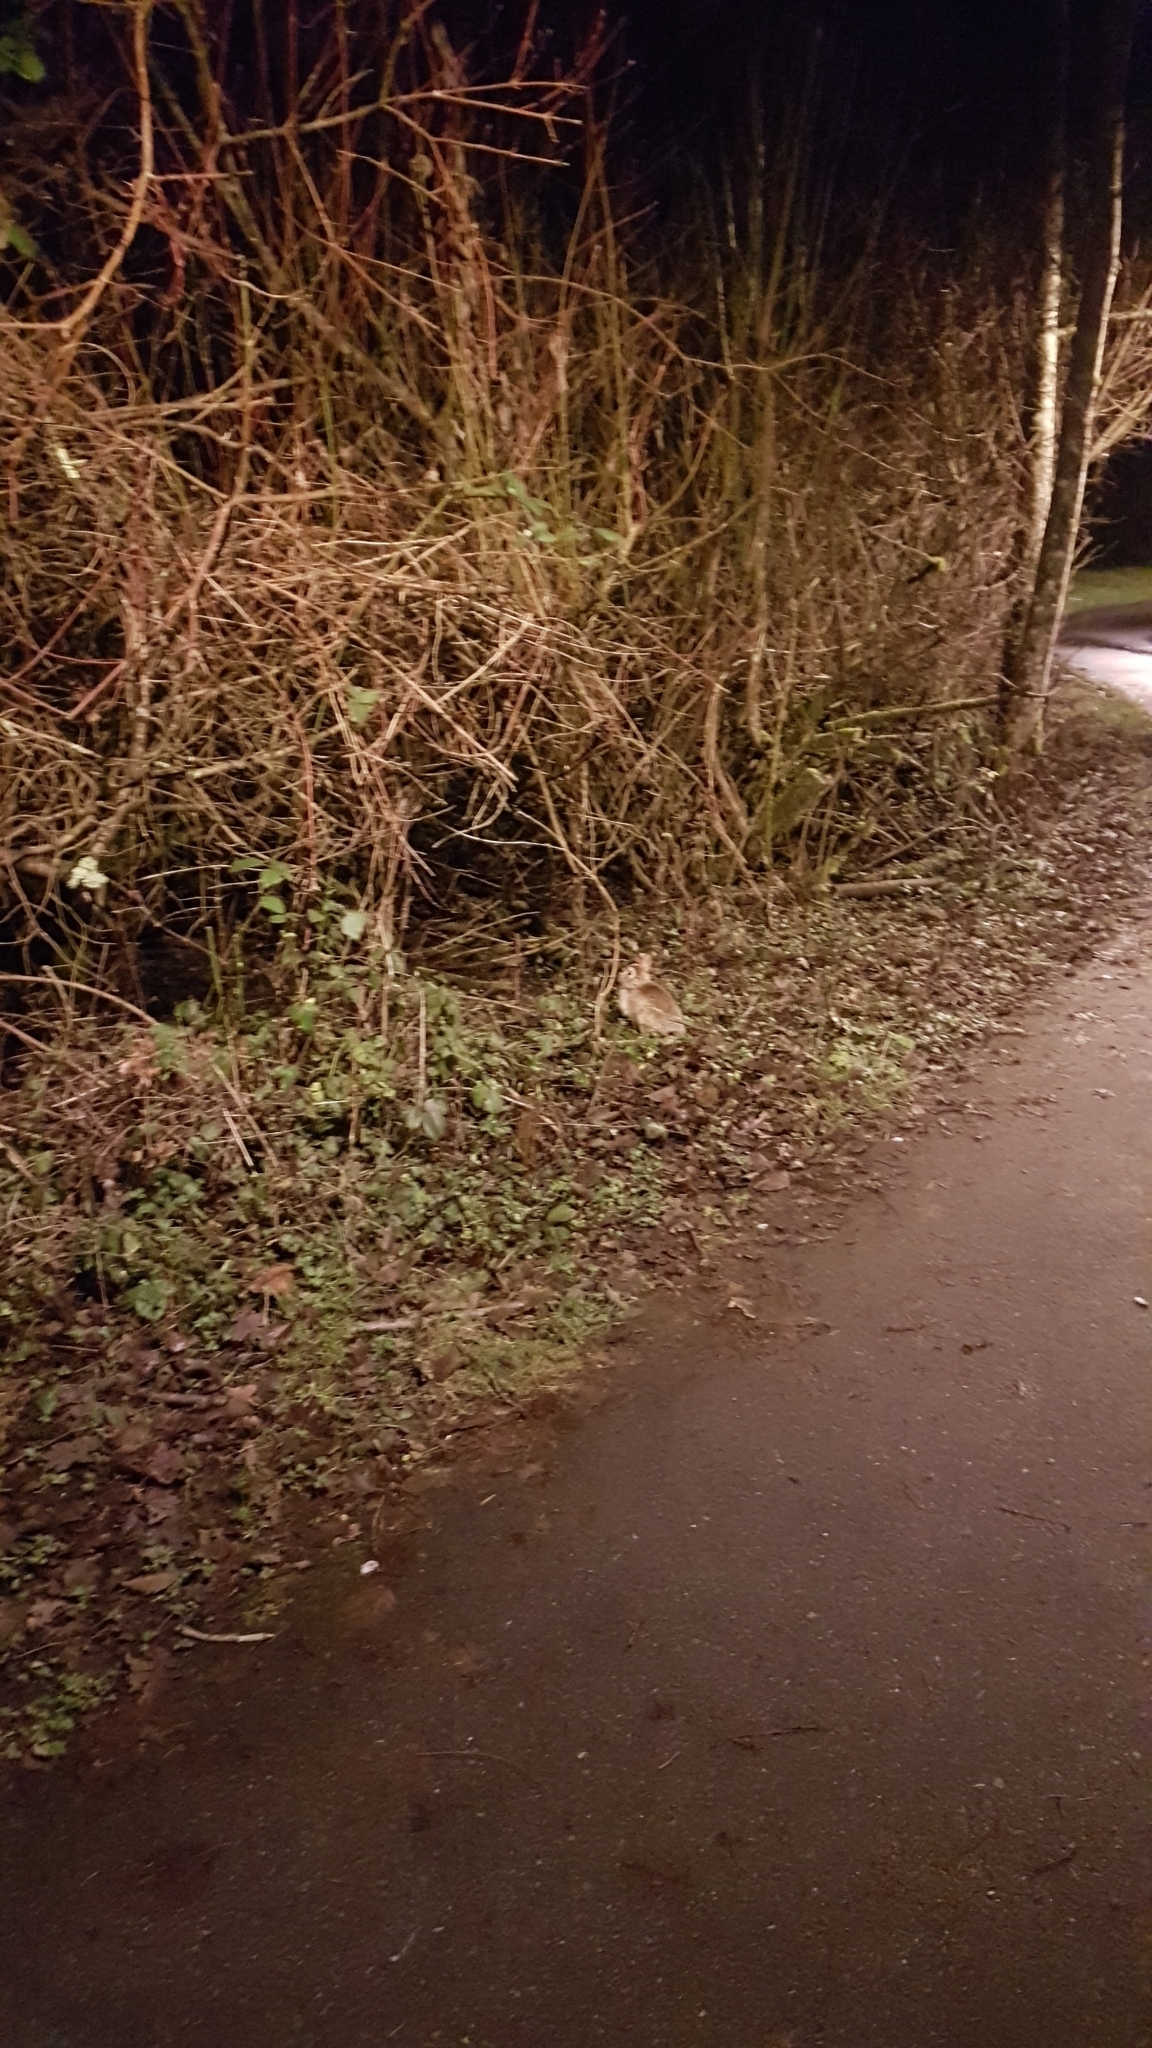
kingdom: Animalia
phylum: Chordata
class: Mammalia
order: Lagomorpha
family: Leporidae
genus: Sylvilagus
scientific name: Sylvilagus floridanus
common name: Eastern cottontail
